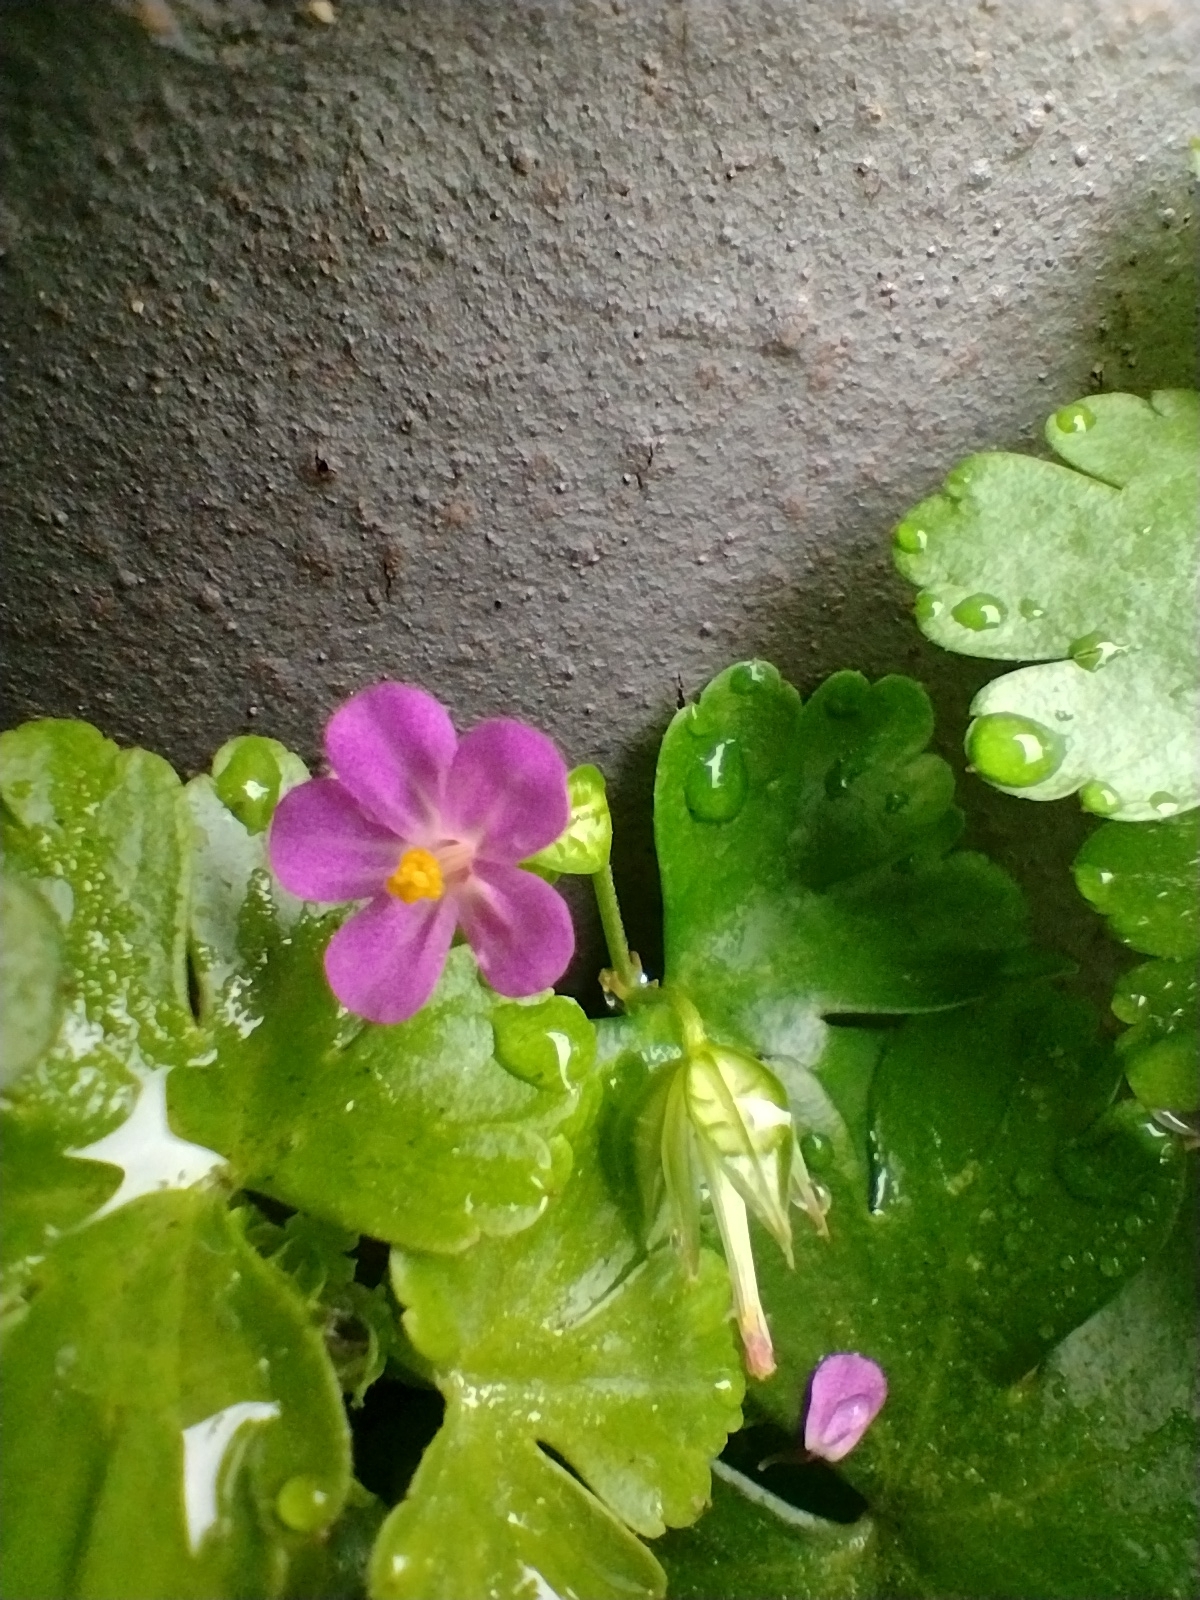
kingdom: Plantae
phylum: Tracheophyta
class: Magnoliopsida
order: Geraniales
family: Geraniaceae
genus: Geranium
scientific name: Geranium lucidum
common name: Shining crane's-bill
